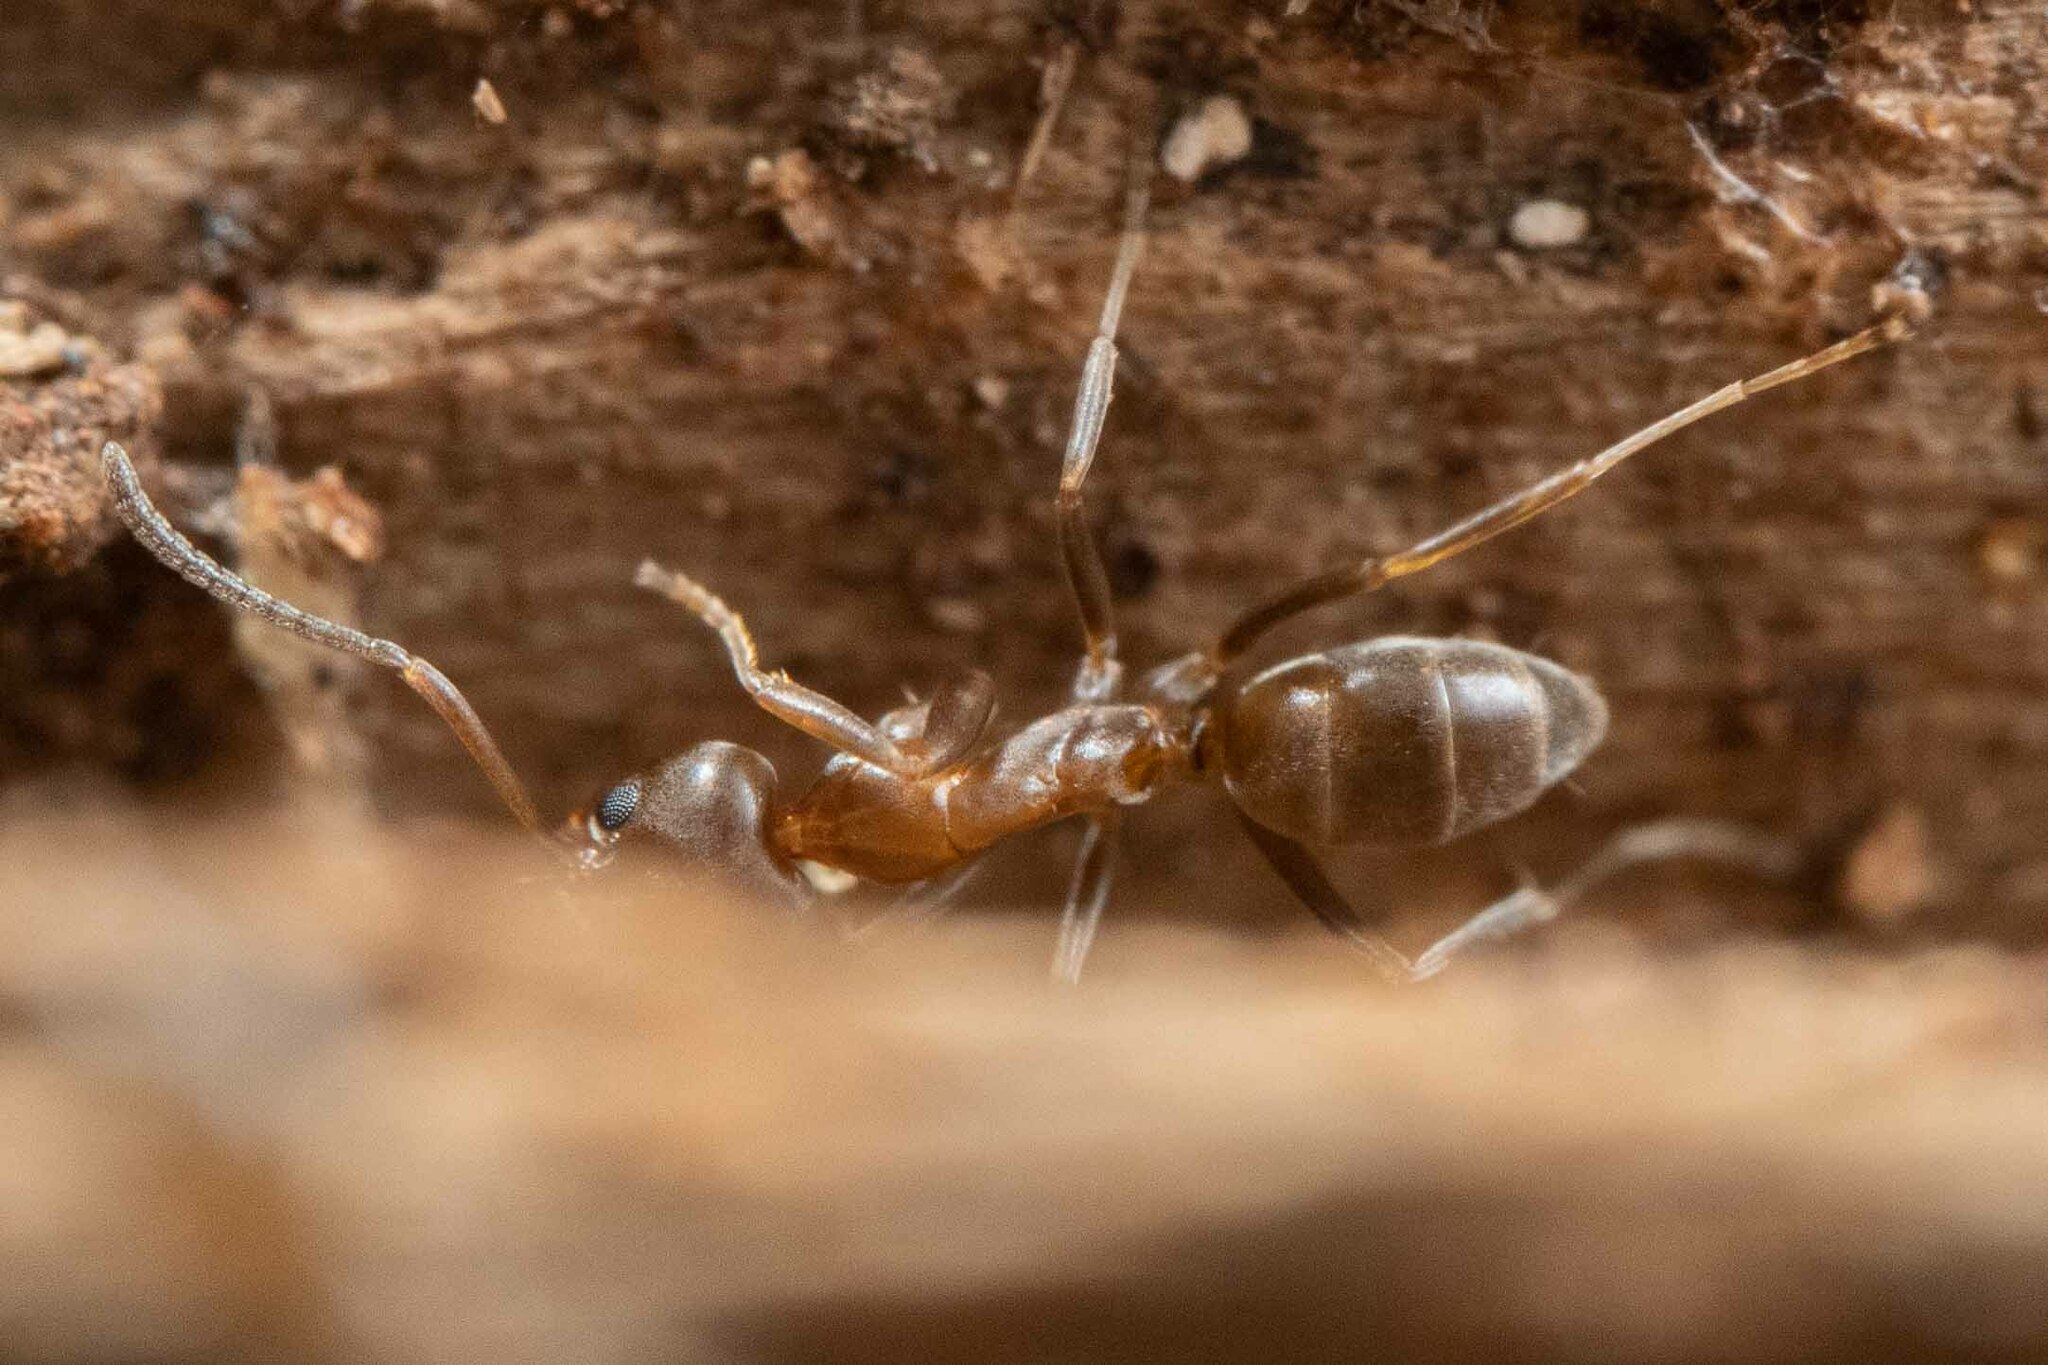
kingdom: Animalia
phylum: Arthropoda
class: Insecta
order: Hymenoptera
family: Formicidae
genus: Linepithema
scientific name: Linepithema humile
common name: Argentine ant
